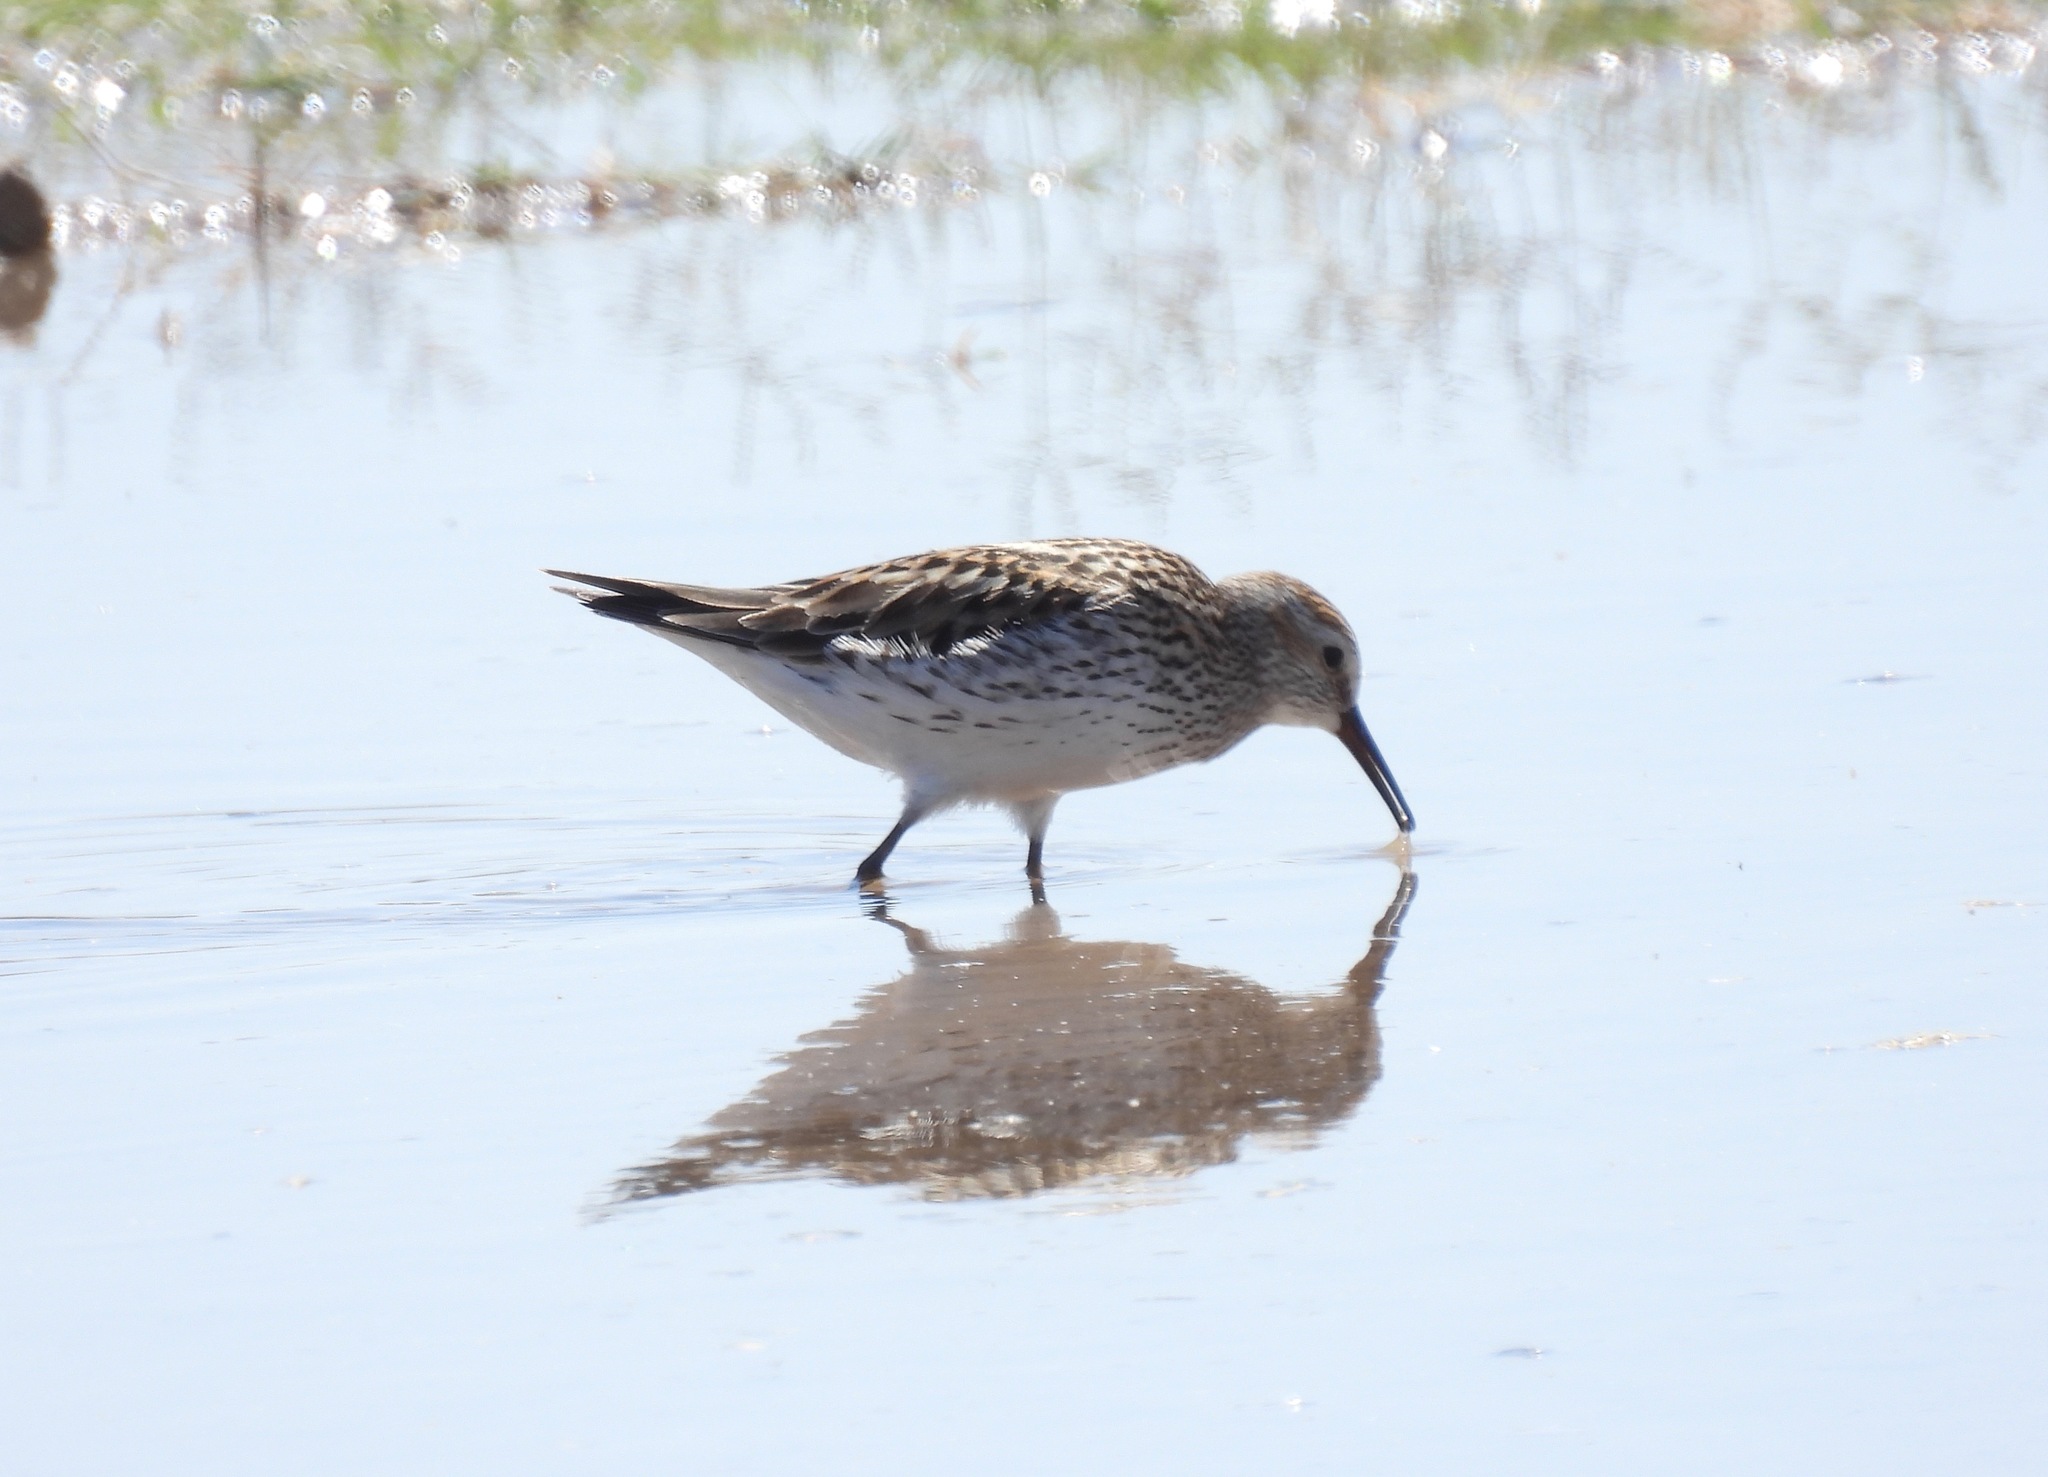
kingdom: Animalia
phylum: Chordata
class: Aves
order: Charadriiformes
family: Scolopacidae
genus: Calidris
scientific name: Calidris fuscicollis
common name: White-rumped sandpiper
